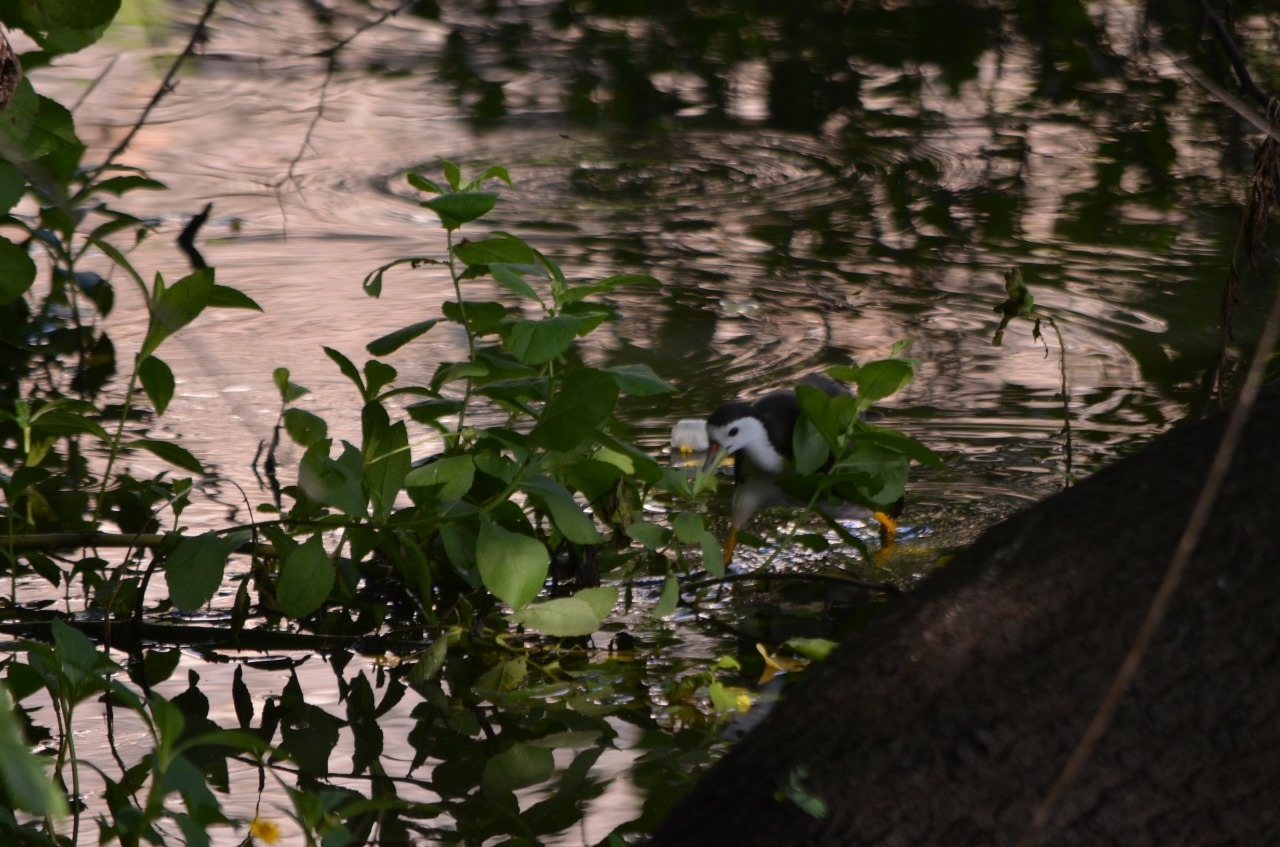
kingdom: Animalia
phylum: Chordata
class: Aves
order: Gruiformes
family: Rallidae
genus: Amaurornis
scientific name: Amaurornis phoenicurus
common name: White-breasted waterhen
